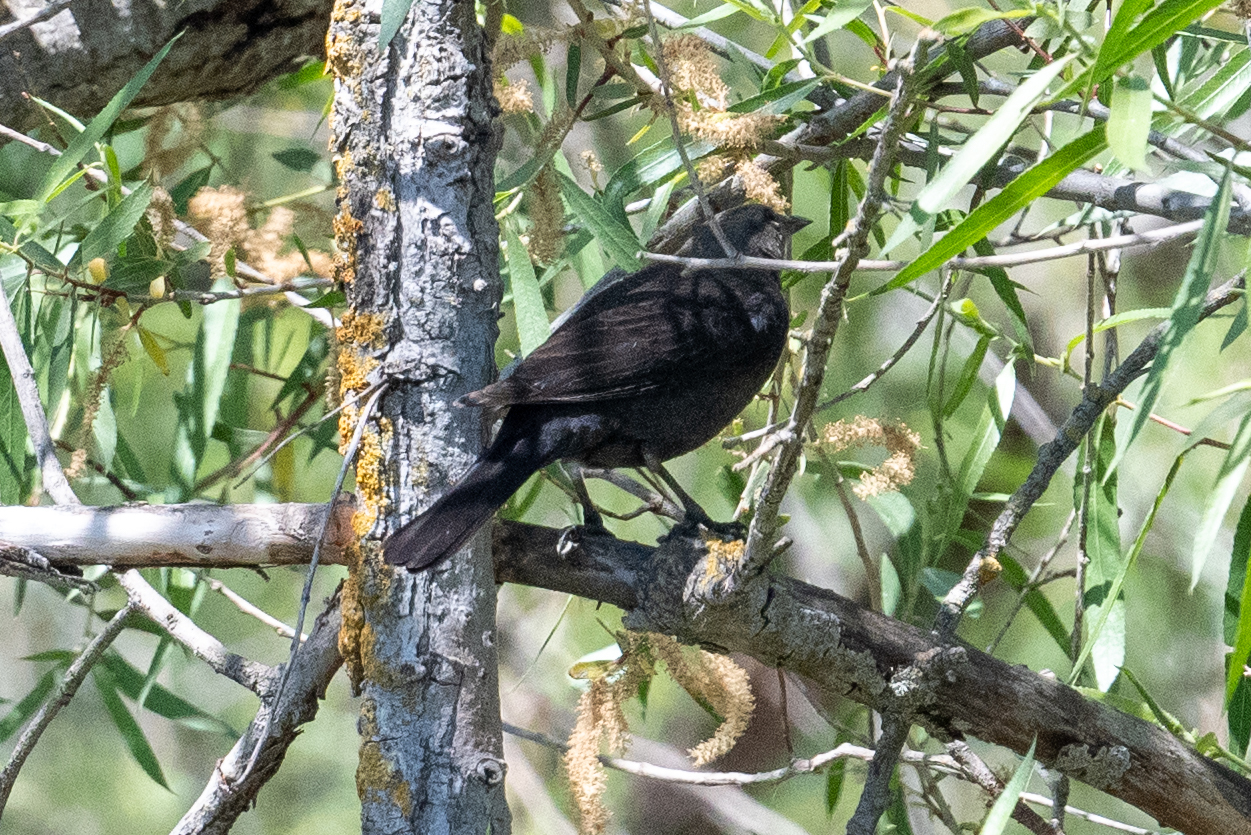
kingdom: Animalia
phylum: Chordata
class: Aves
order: Passeriformes
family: Icteridae
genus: Molothrus
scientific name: Molothrus ater
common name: Brown-headed cowbird
